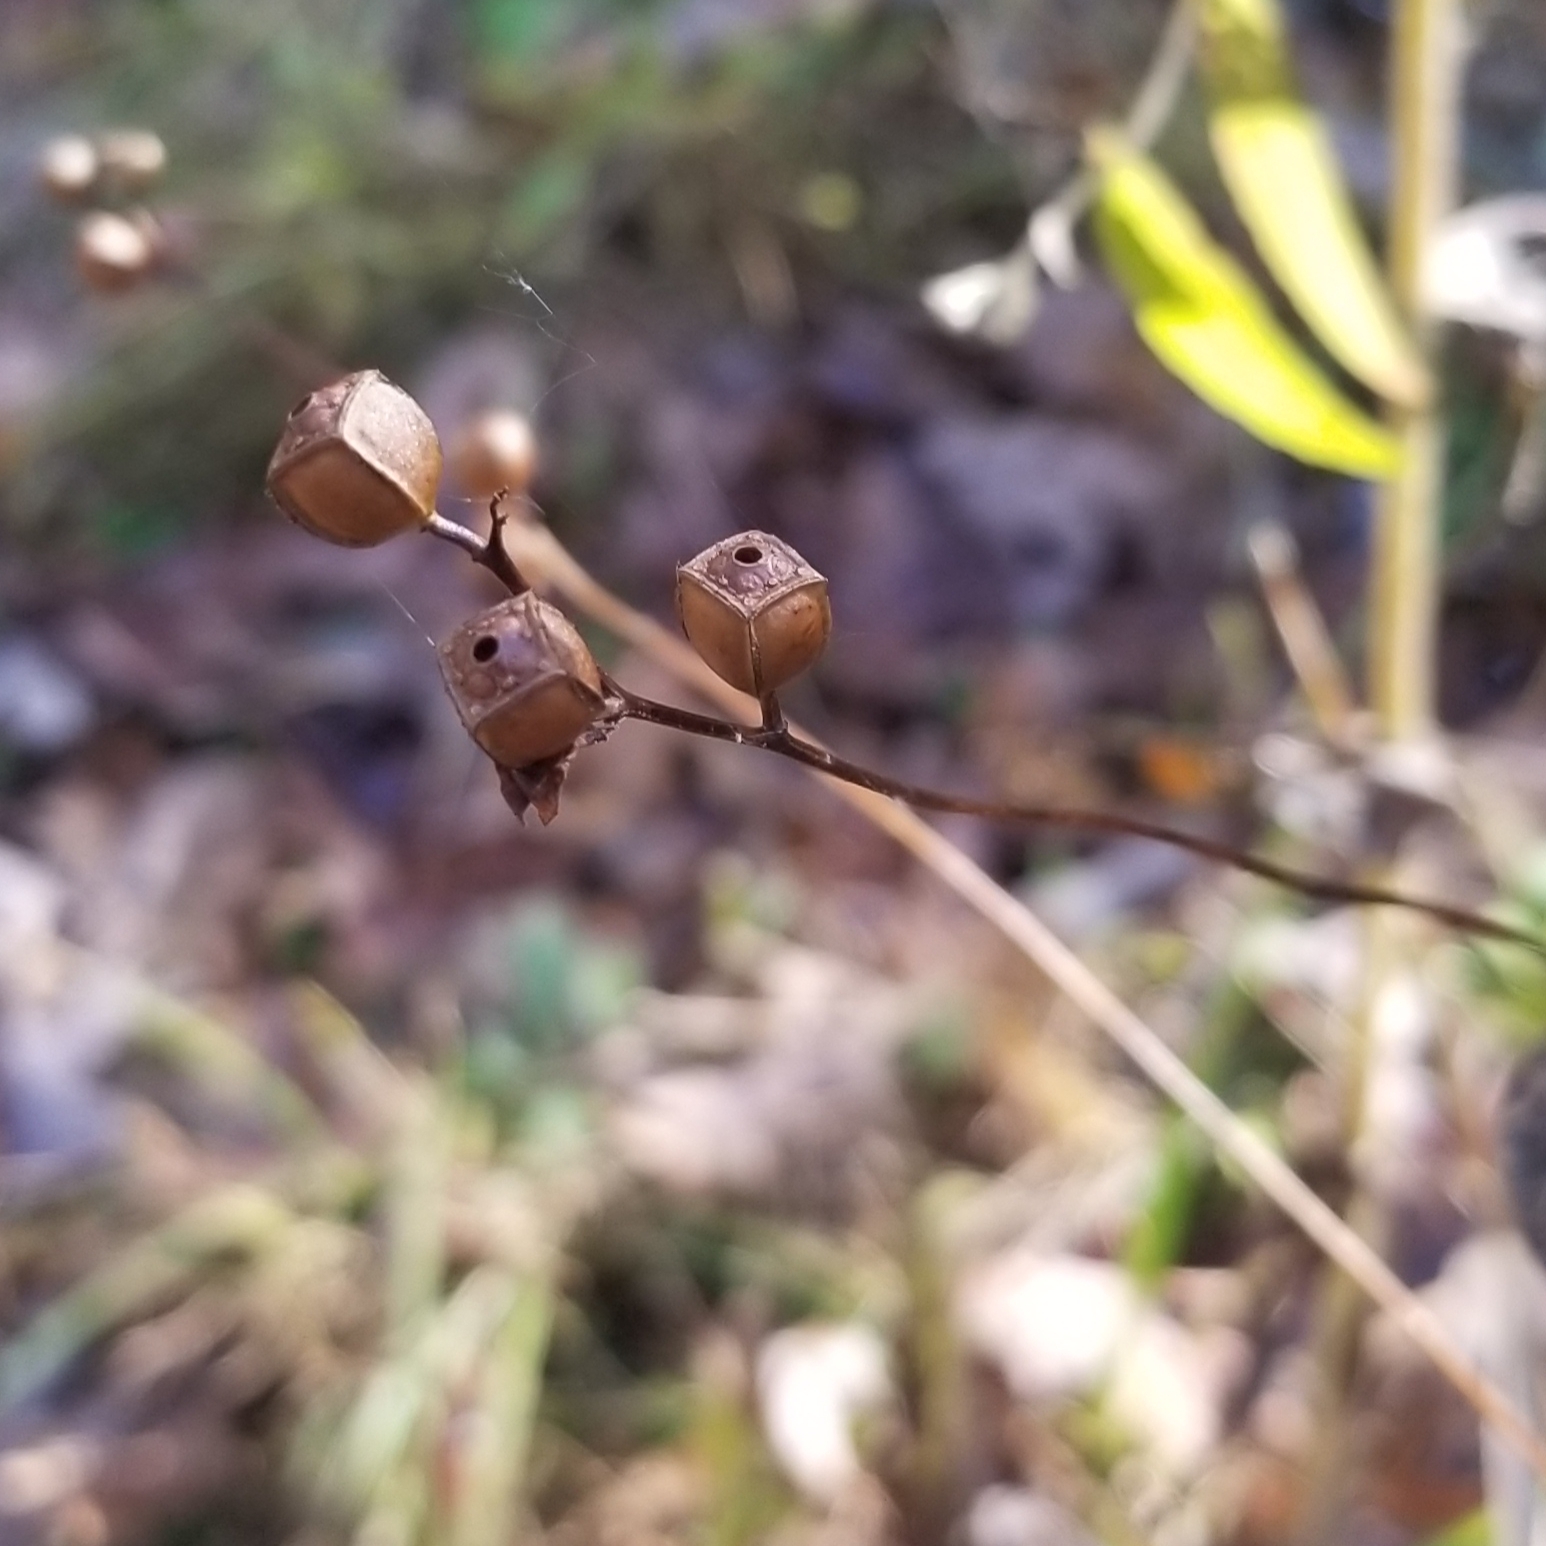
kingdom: Plantae
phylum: Tracheophyta
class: Magnoliopsida
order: Myrtales
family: Onagraceae
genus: Ludwigia
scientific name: Ludwigia alternifolia
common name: Rattlebox
